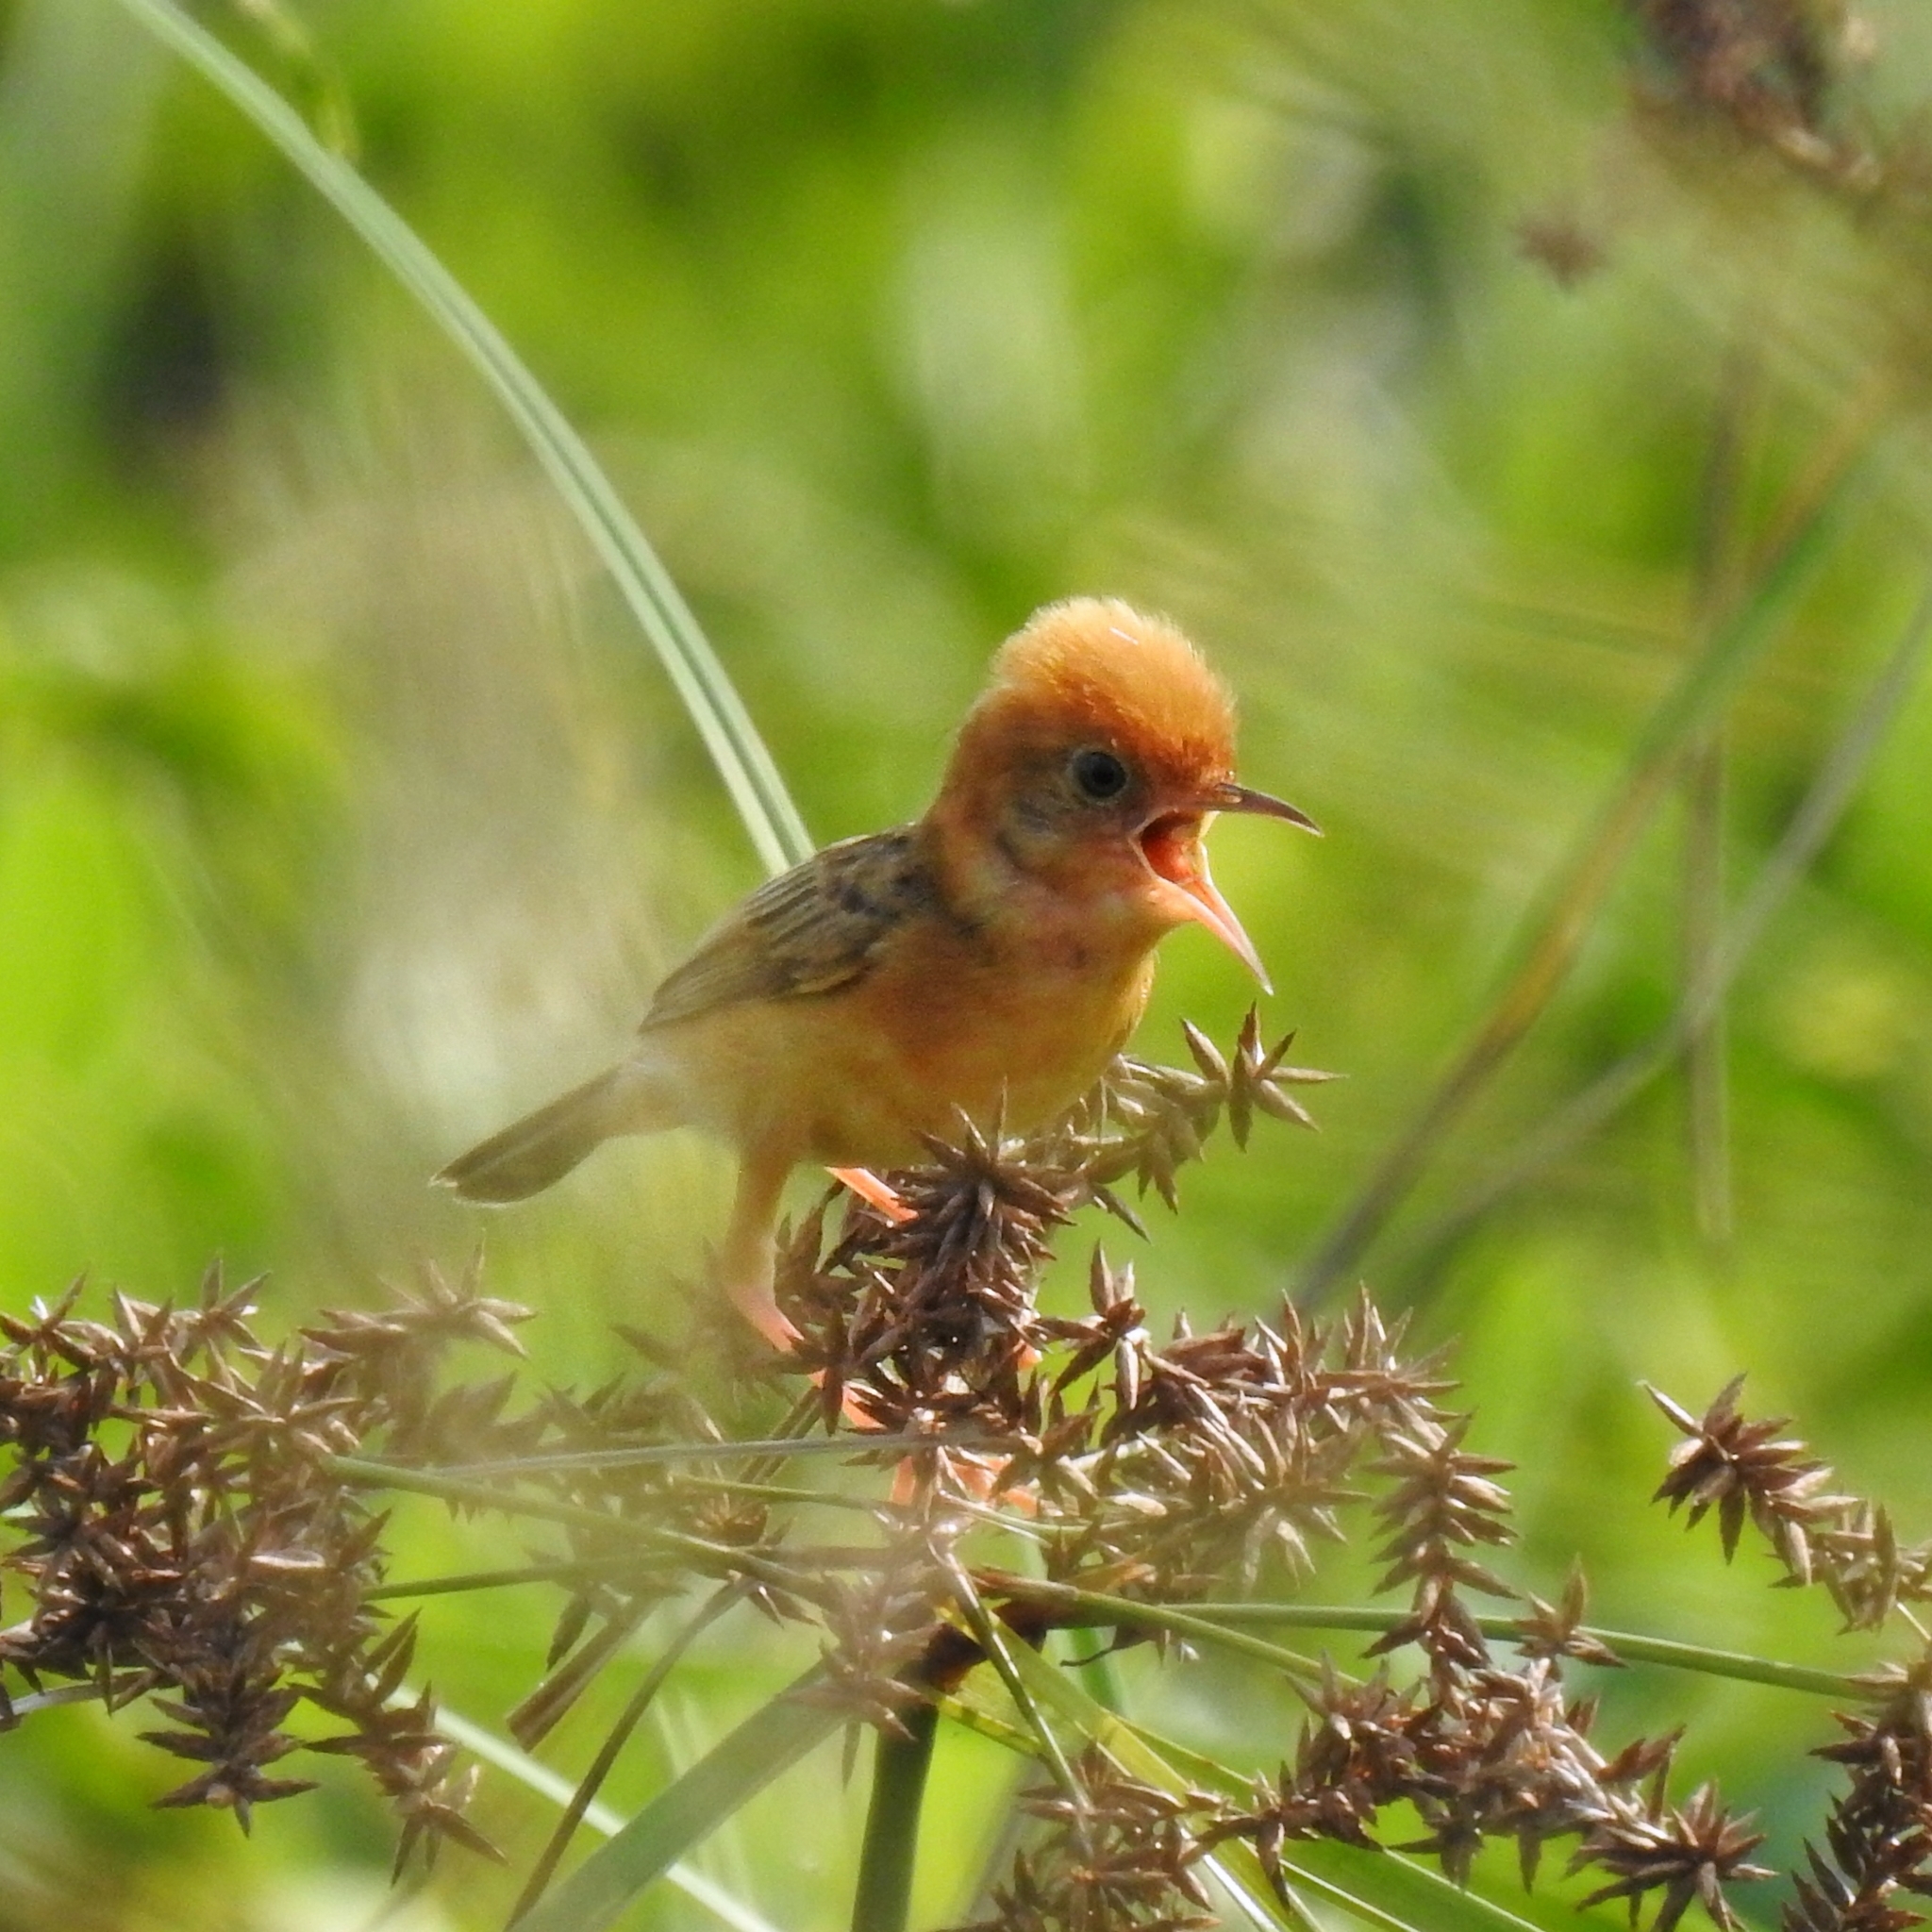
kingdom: Animalia
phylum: Chordata
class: Aves
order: Passeriformes
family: Cisticolidae
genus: Cisticola
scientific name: Cisticola exilis
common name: Golden-headed cisticola
